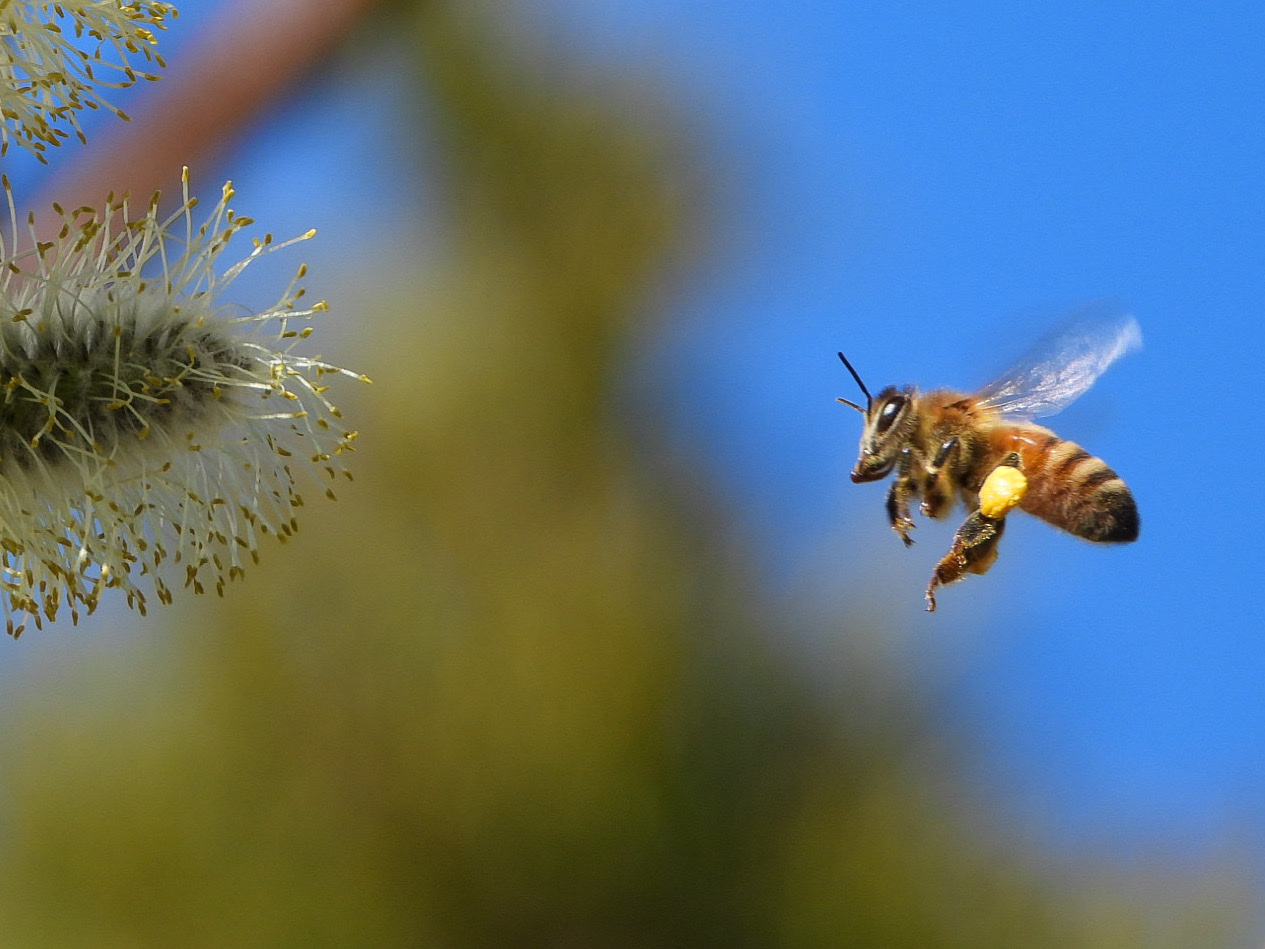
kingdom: Animalia
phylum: Arthropoda
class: Insecta
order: Hymenoptera
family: Apidae
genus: Apis
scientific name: Apis mellifera
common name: Honey bee
